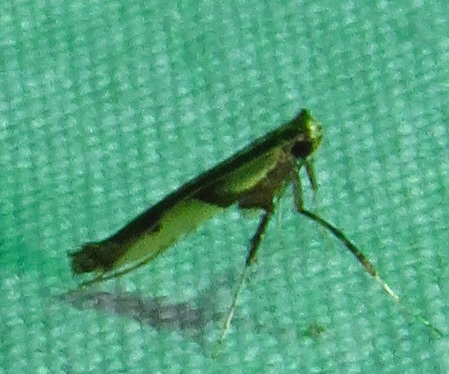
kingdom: Animalia
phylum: Arthropoda
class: Insecta
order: Lepidoptera
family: Gracillariidae
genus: Caloptilia
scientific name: Caloptilia blandella
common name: Walnut caloptilia moth
